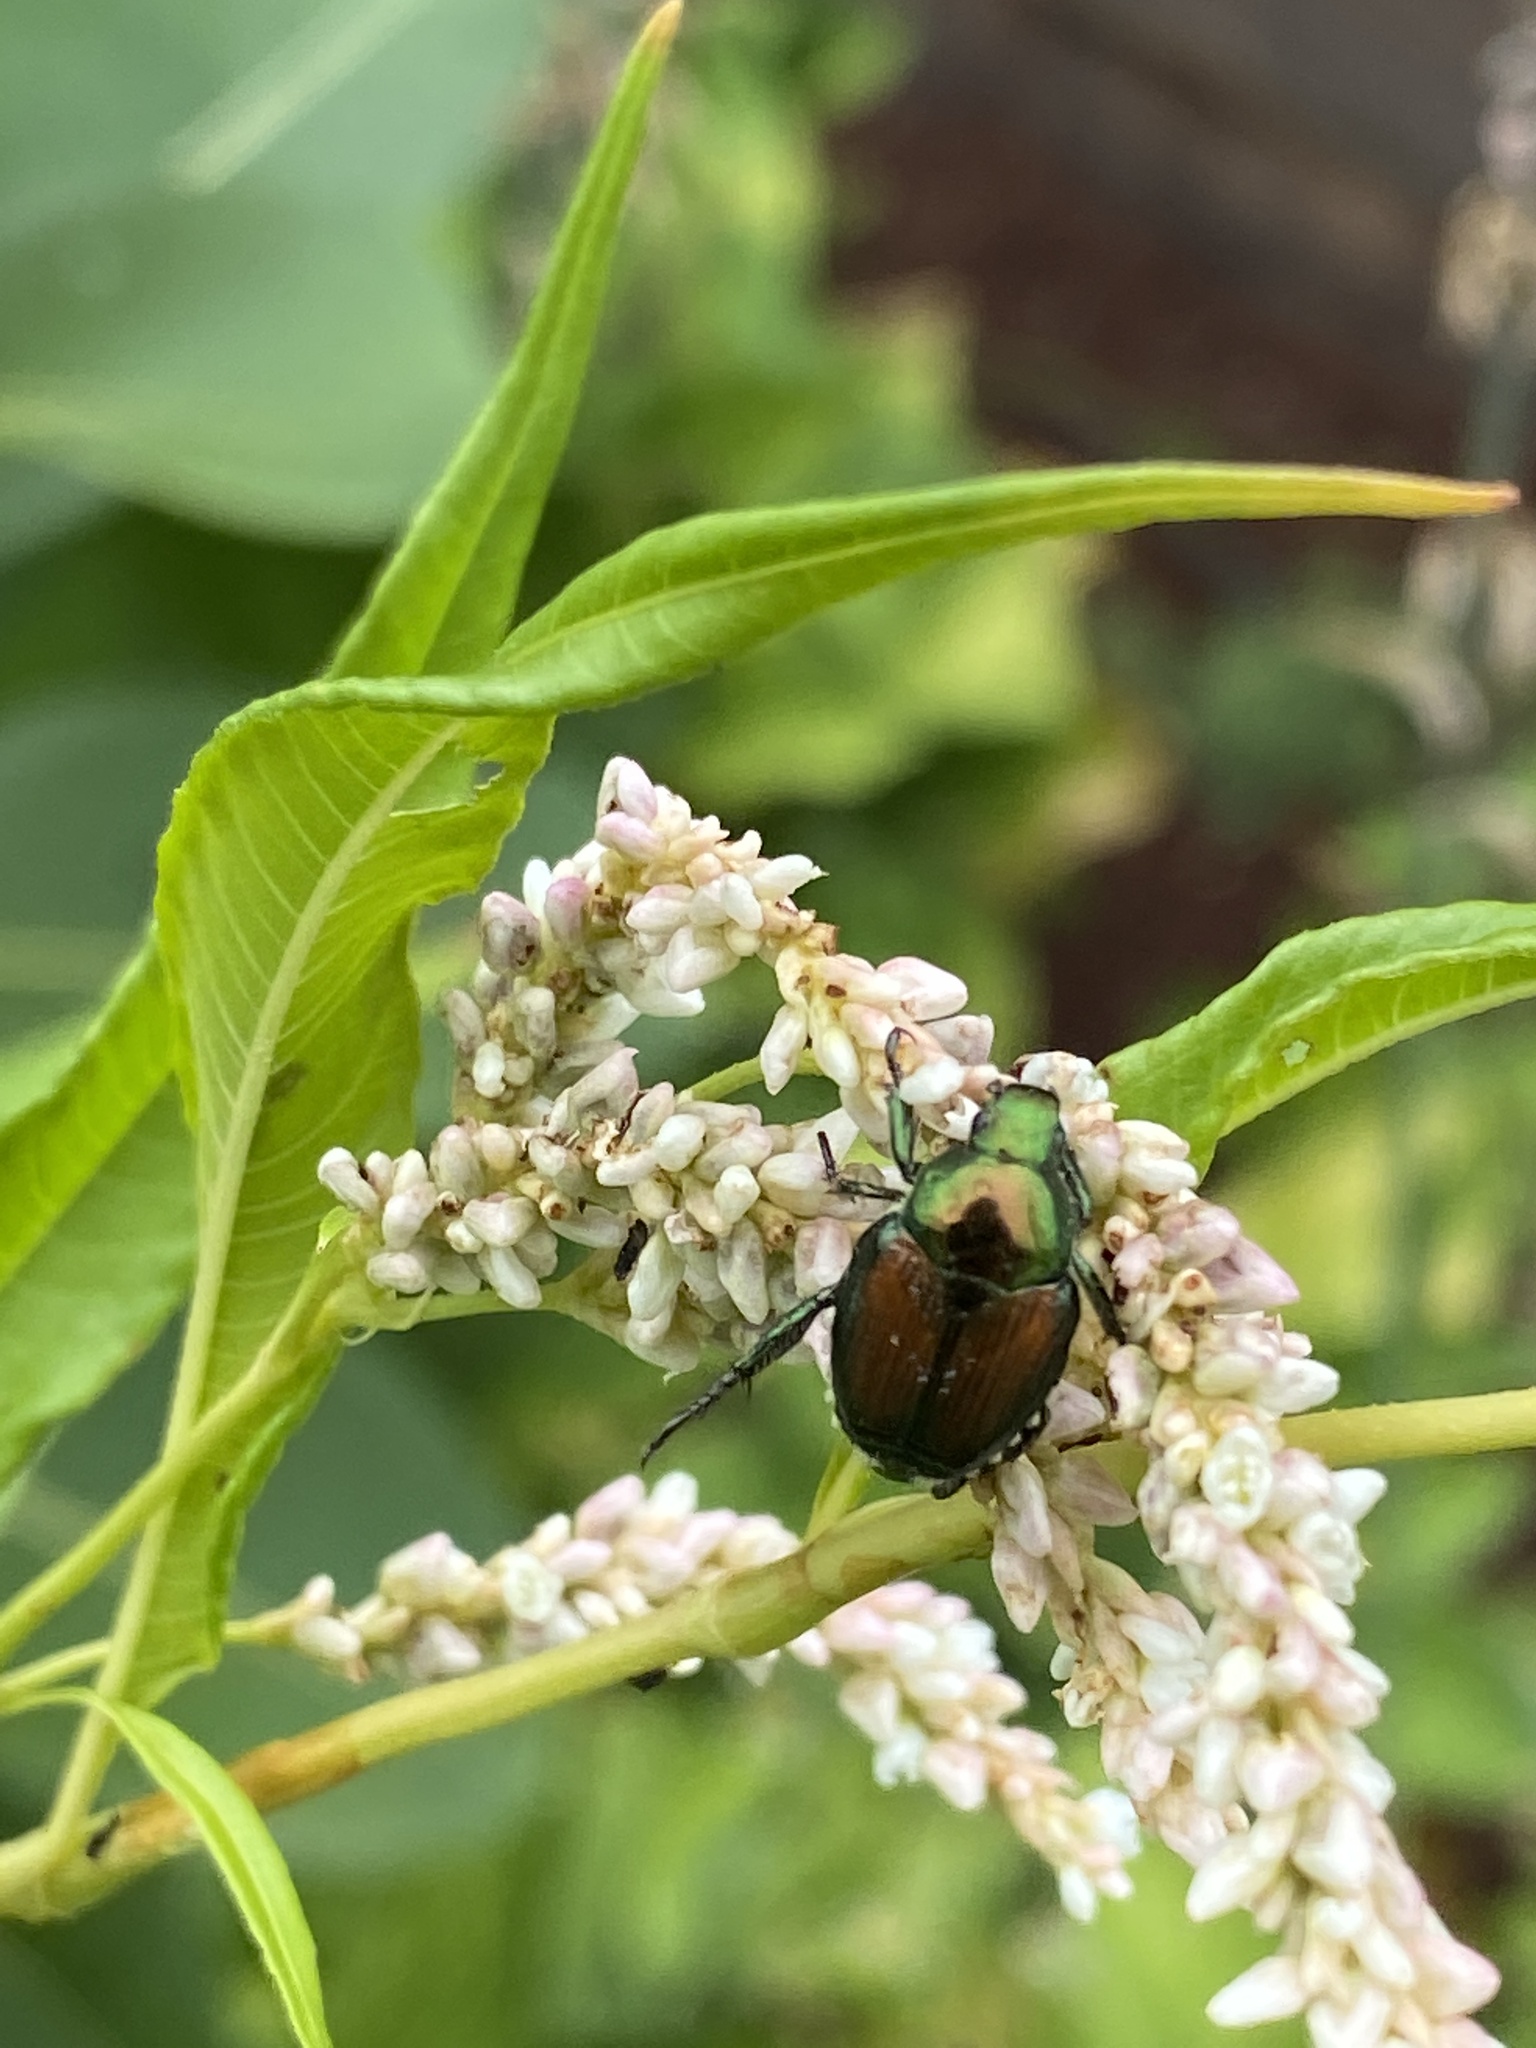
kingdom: Animalia
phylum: Arthropoda
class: Insecta
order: Coleoptera
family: Scarabaeidae
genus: Popillia
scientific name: Popillia japonica
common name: Japanese beetle
